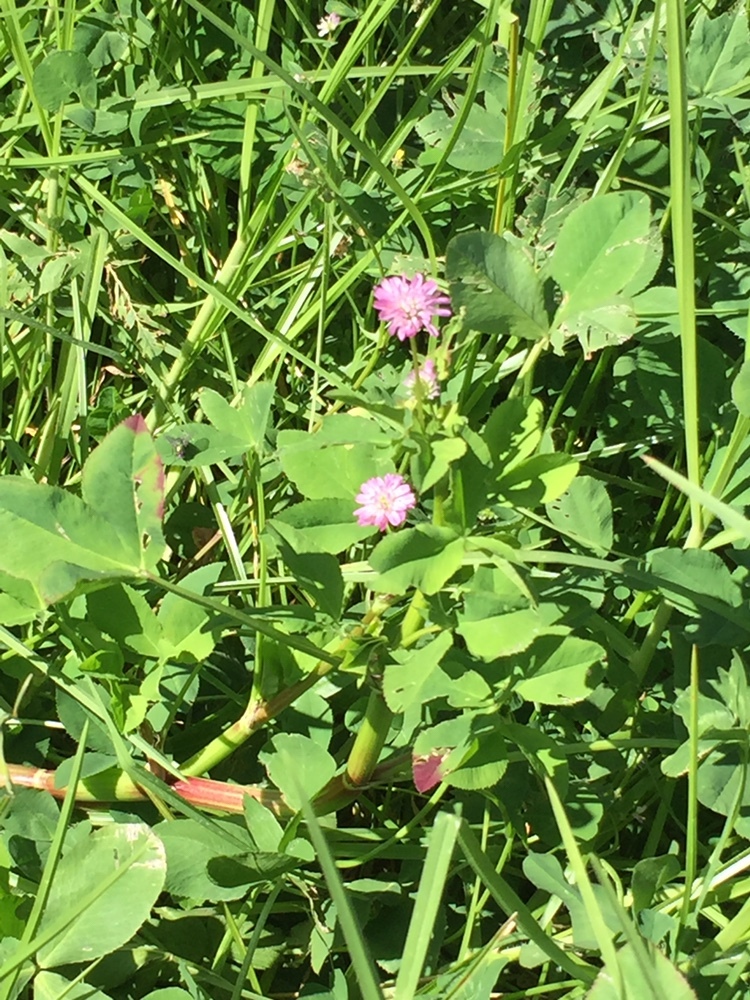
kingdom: Plantae
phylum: Tracheophyta
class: Magnoliopsida
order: Fabales
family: Fabaceae
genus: Trifolium
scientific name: Trifolium resupinatum
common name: Reversed clover
